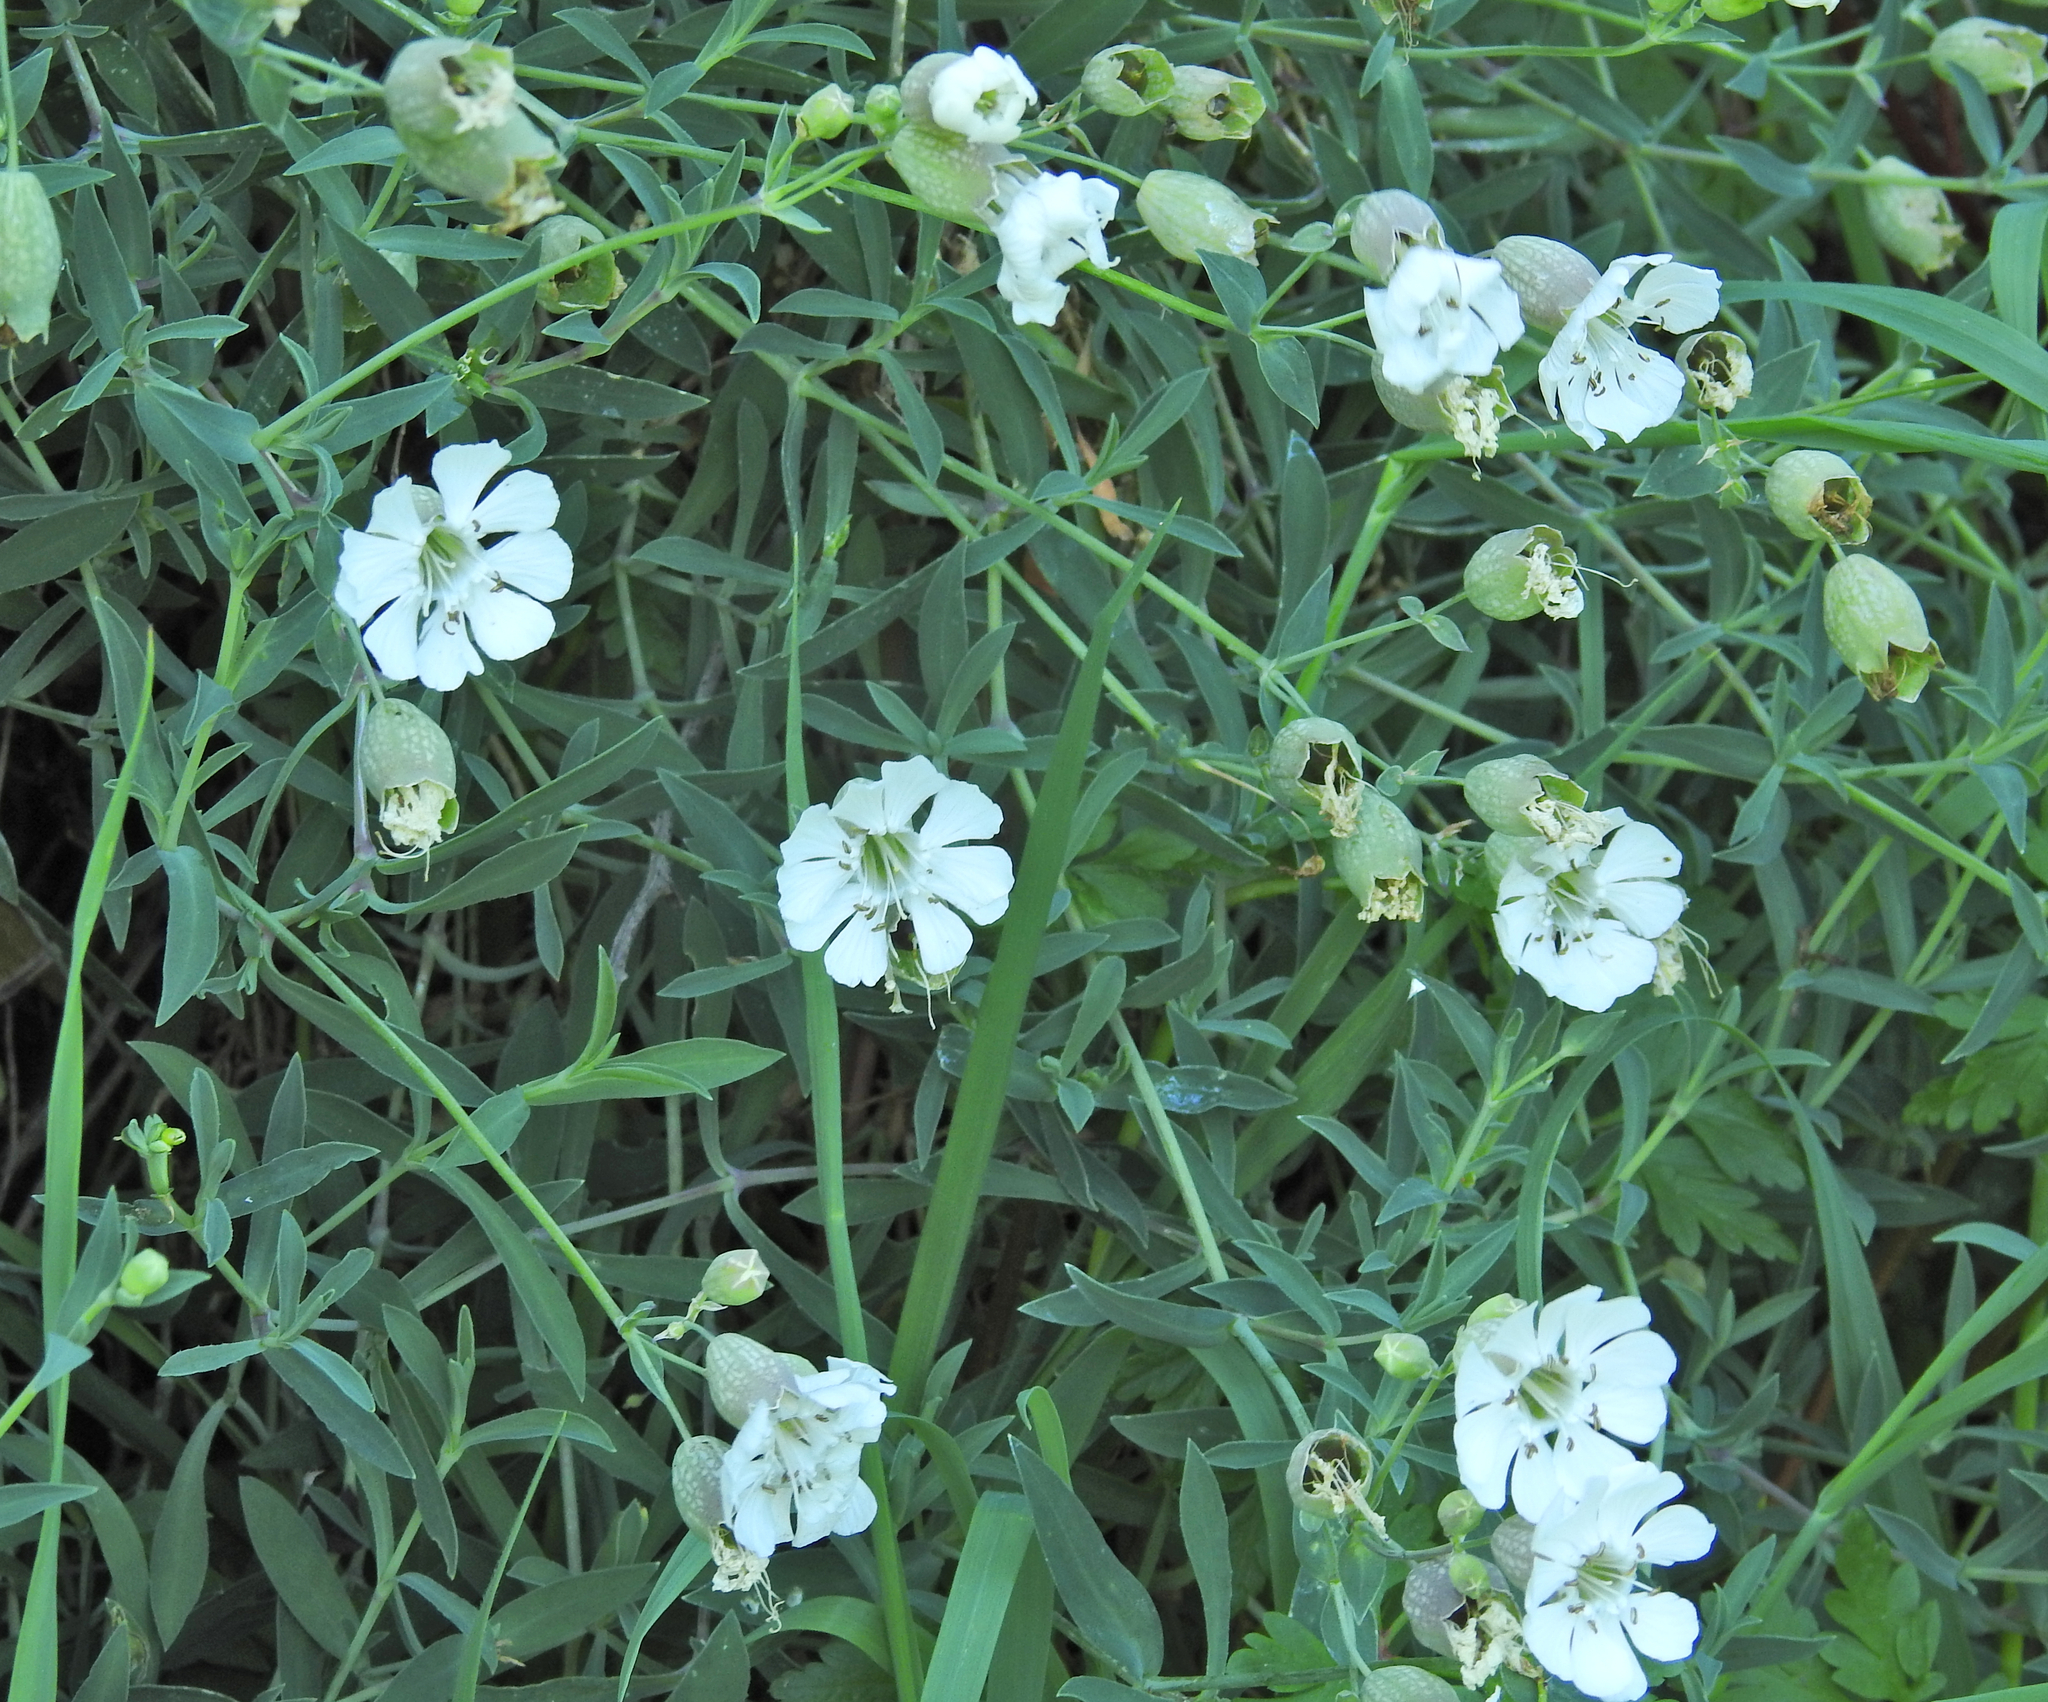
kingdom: Plantae
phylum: Tracheophyta
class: Magnoliopsida
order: Caryophyllales
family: Caryophyllaceae
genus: Silene
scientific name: Silene uniflora
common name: Sea campion
